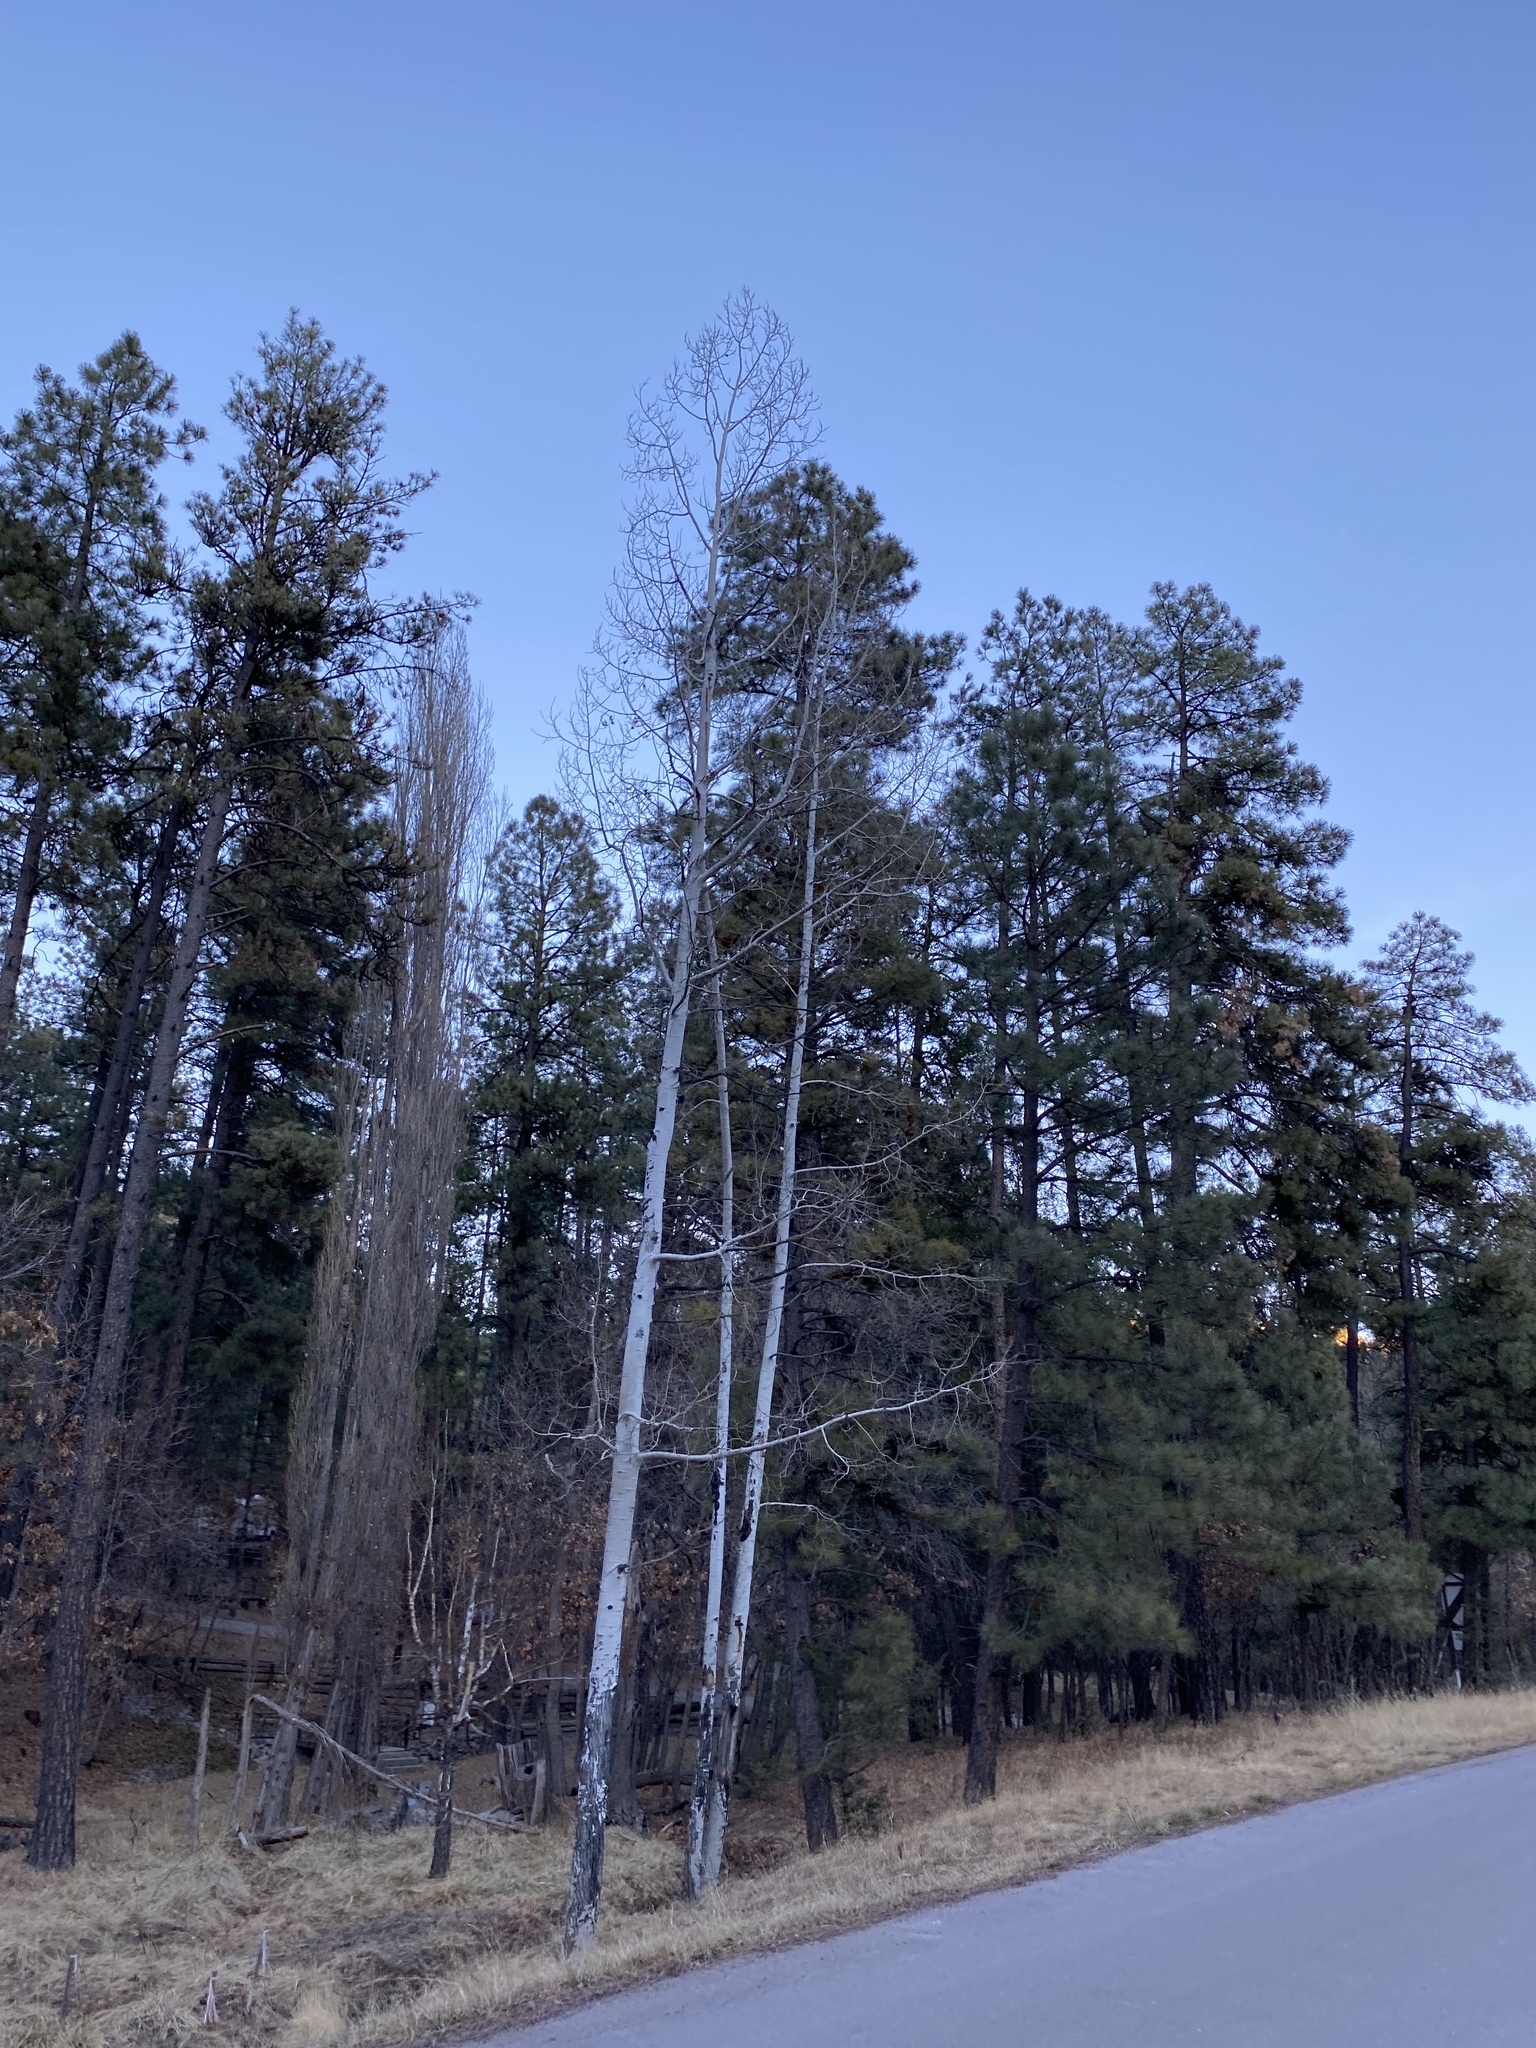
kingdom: Plantae
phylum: Tracheophyta
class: Magnoliopsida
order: Malpighiales
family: Salicaceae
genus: Populus
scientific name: Populus tremuloides
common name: Quaking aspen
